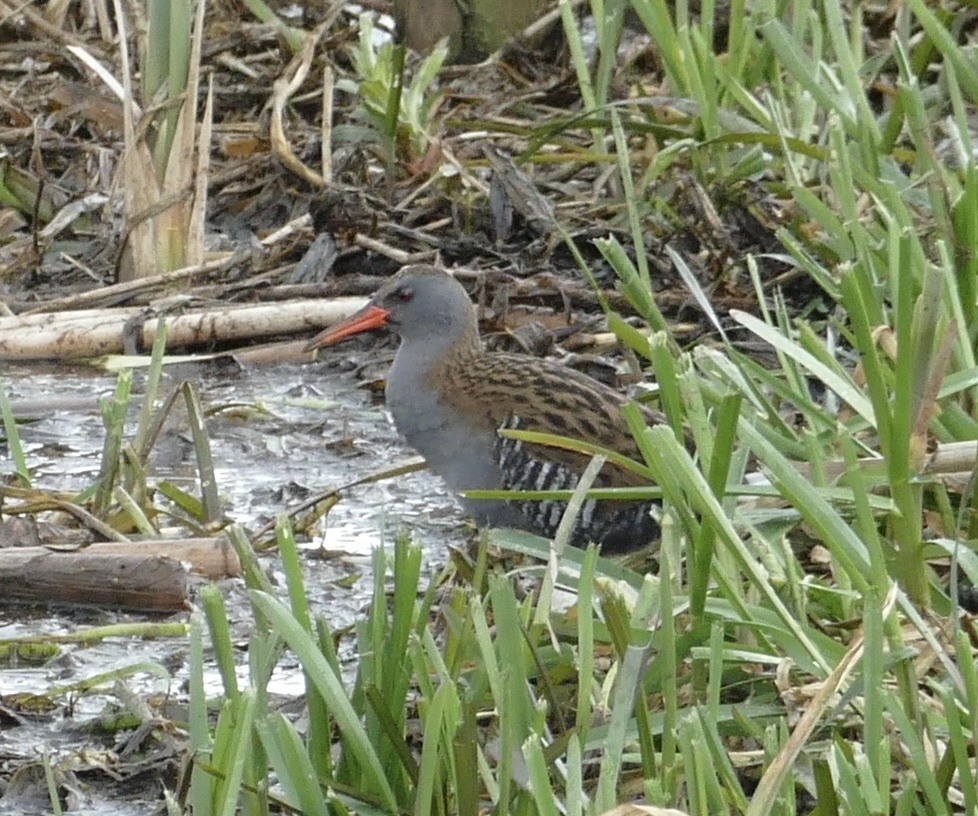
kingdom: Animalia
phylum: Chordata
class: Aves
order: Gruiformes
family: Rallidae
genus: Rallus
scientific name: Rallus aquaticus
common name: Water rail
